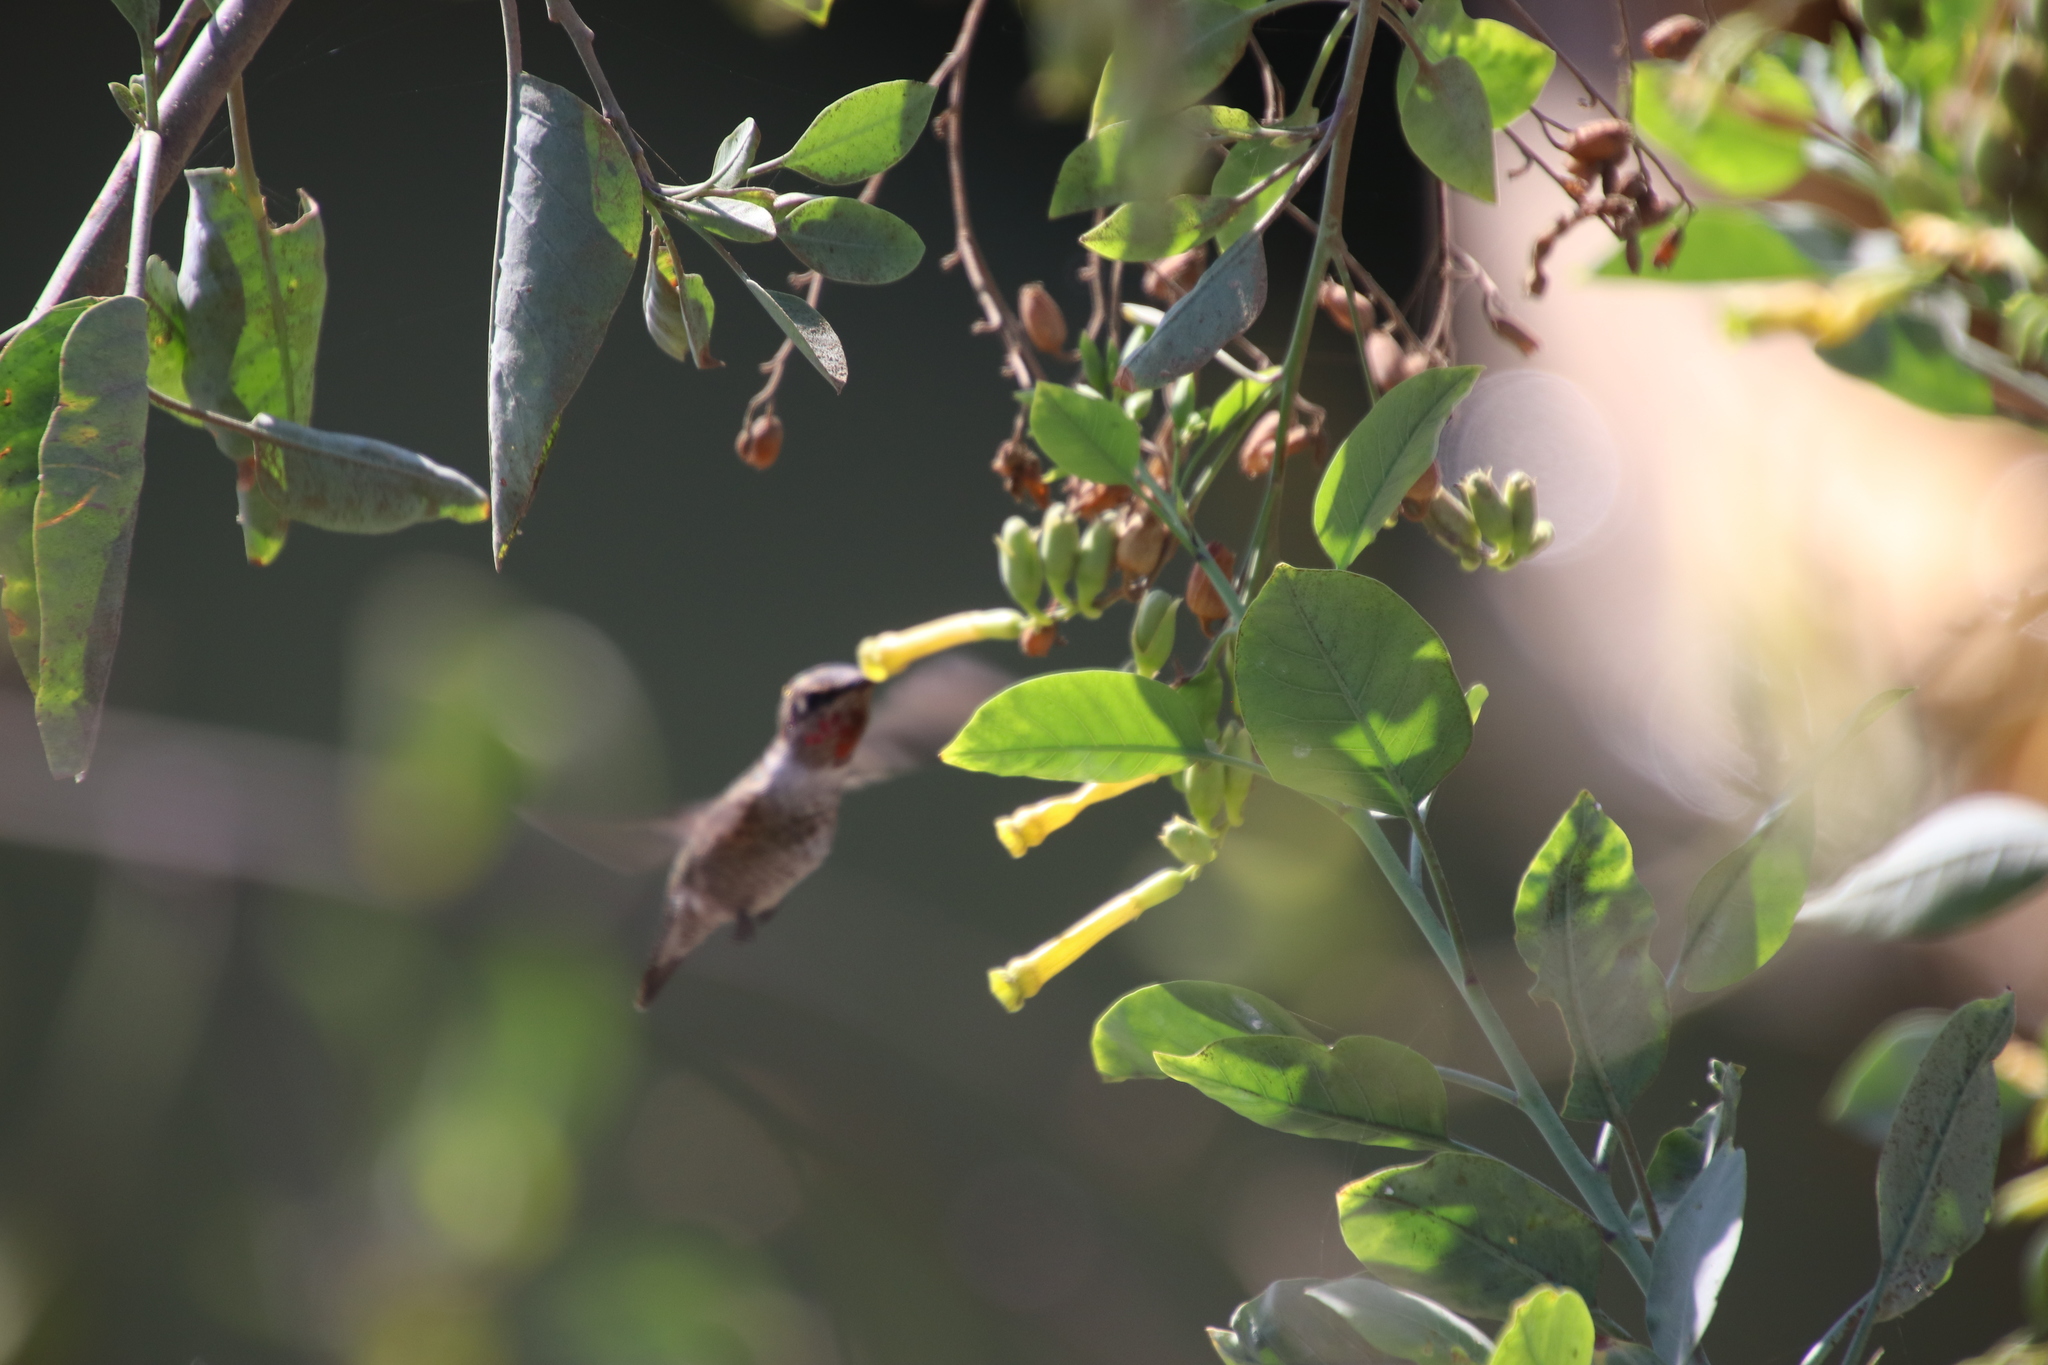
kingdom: Animalia
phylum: Chordata
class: Aves
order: Apodiformes
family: Trochilidae
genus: Calypte
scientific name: Calypte anna
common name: Anna's hummingbird
